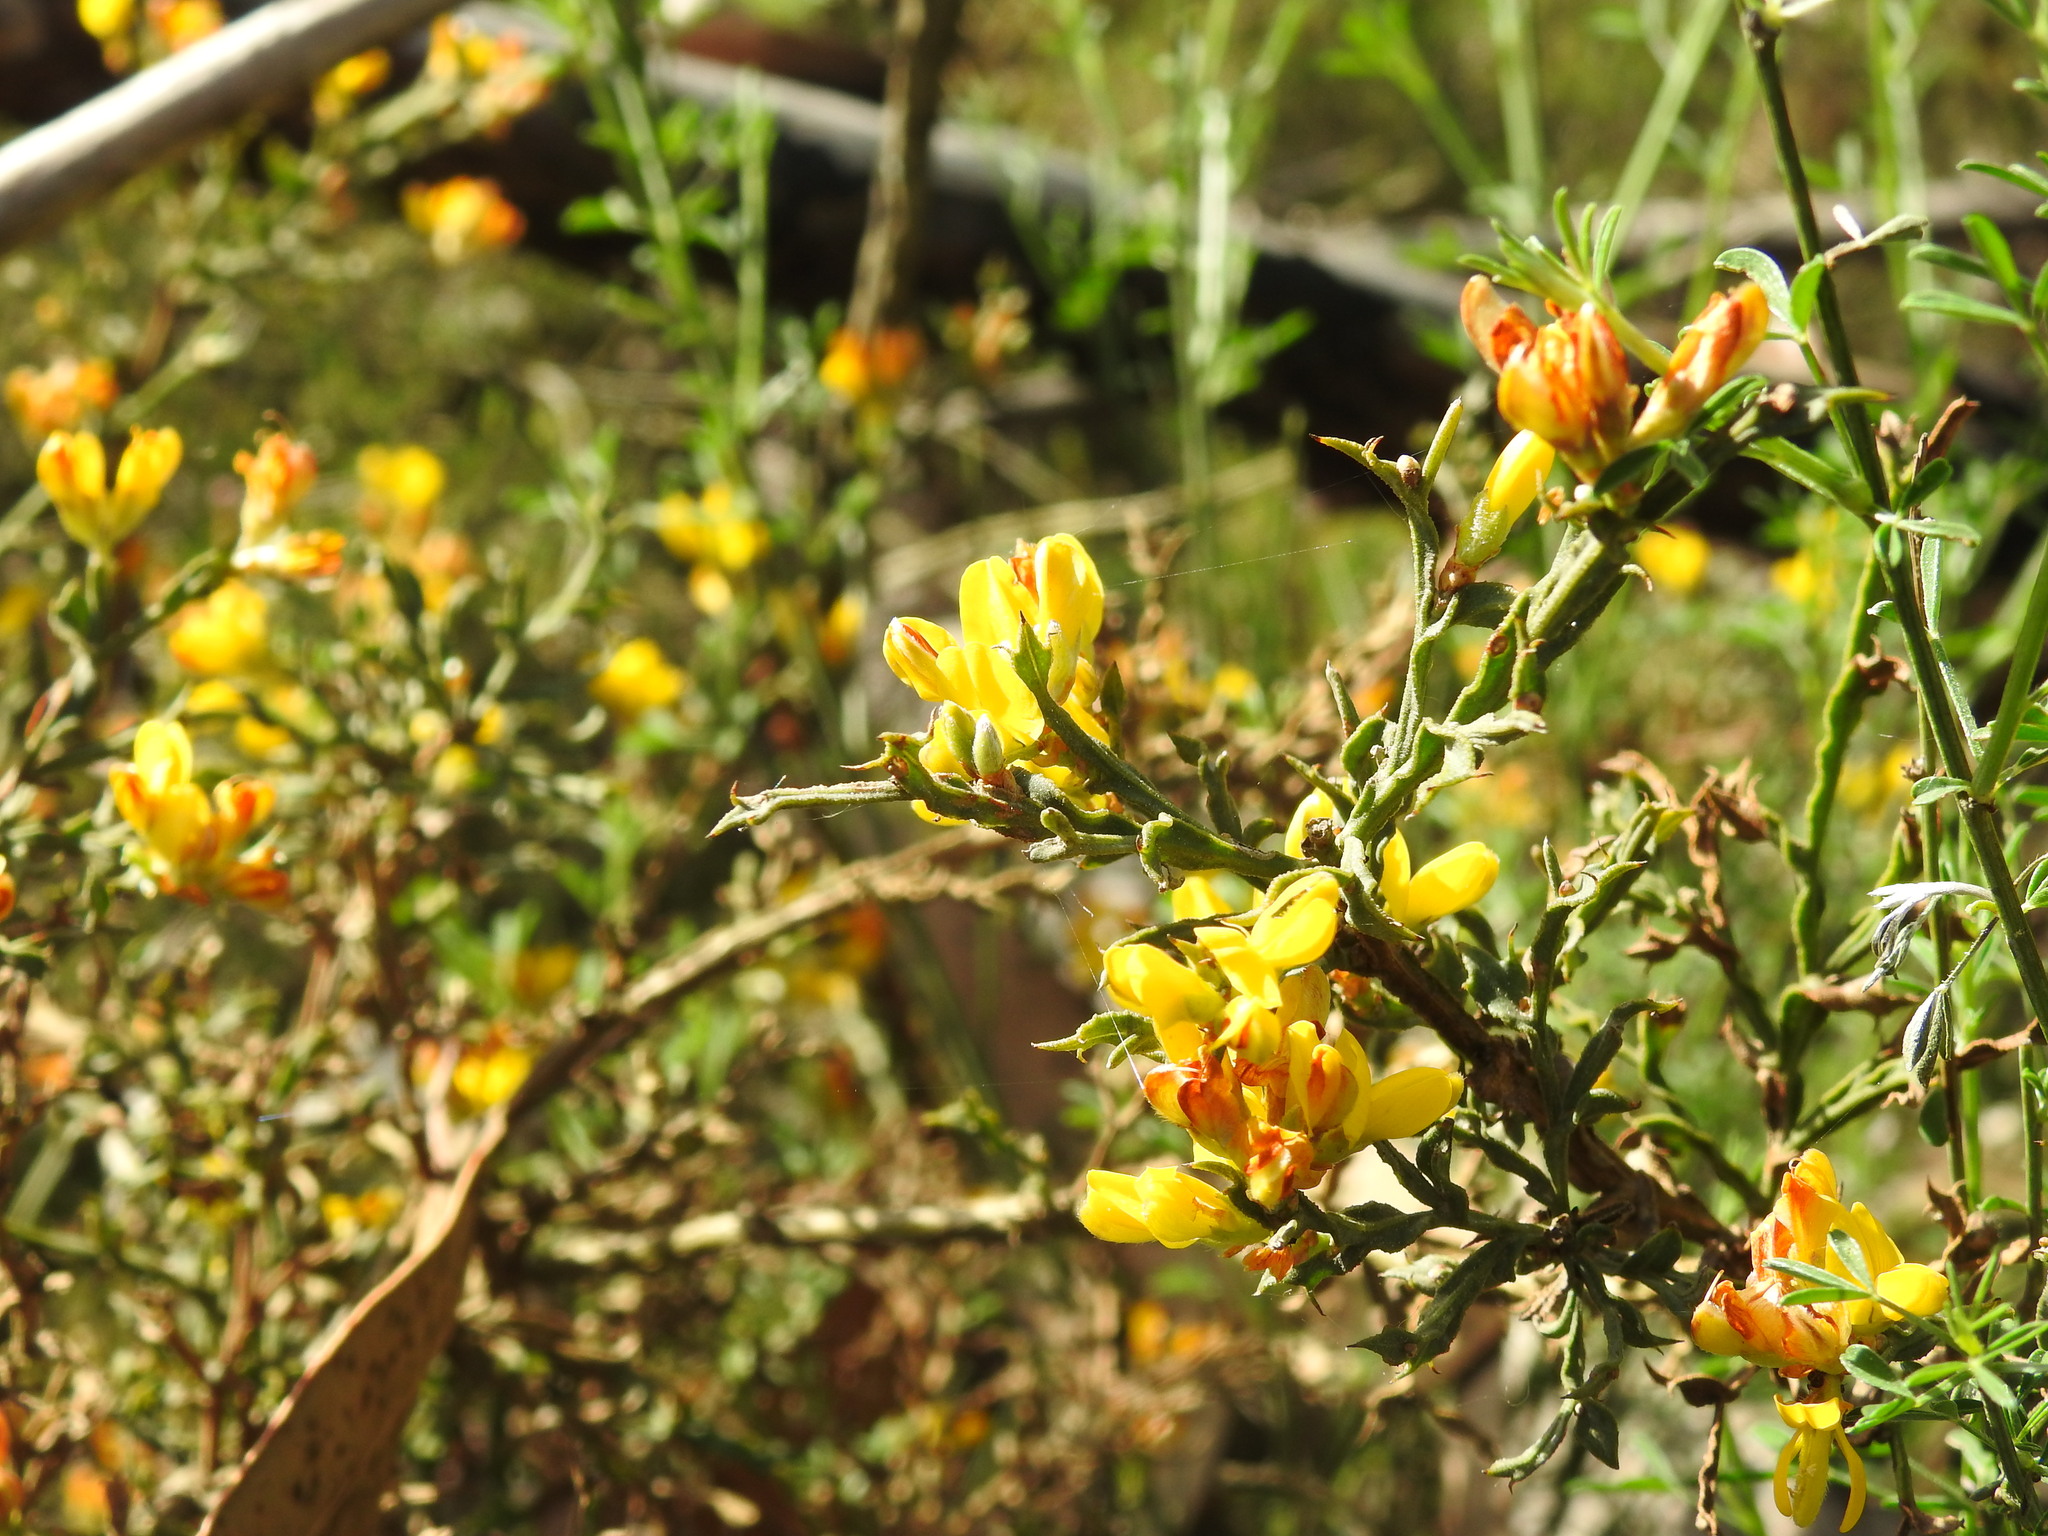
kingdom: Plantae
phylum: Tracheophyta
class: Magnoliopsida
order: Fabales
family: Fabaceae
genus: Genista
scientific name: Genista tridentata
